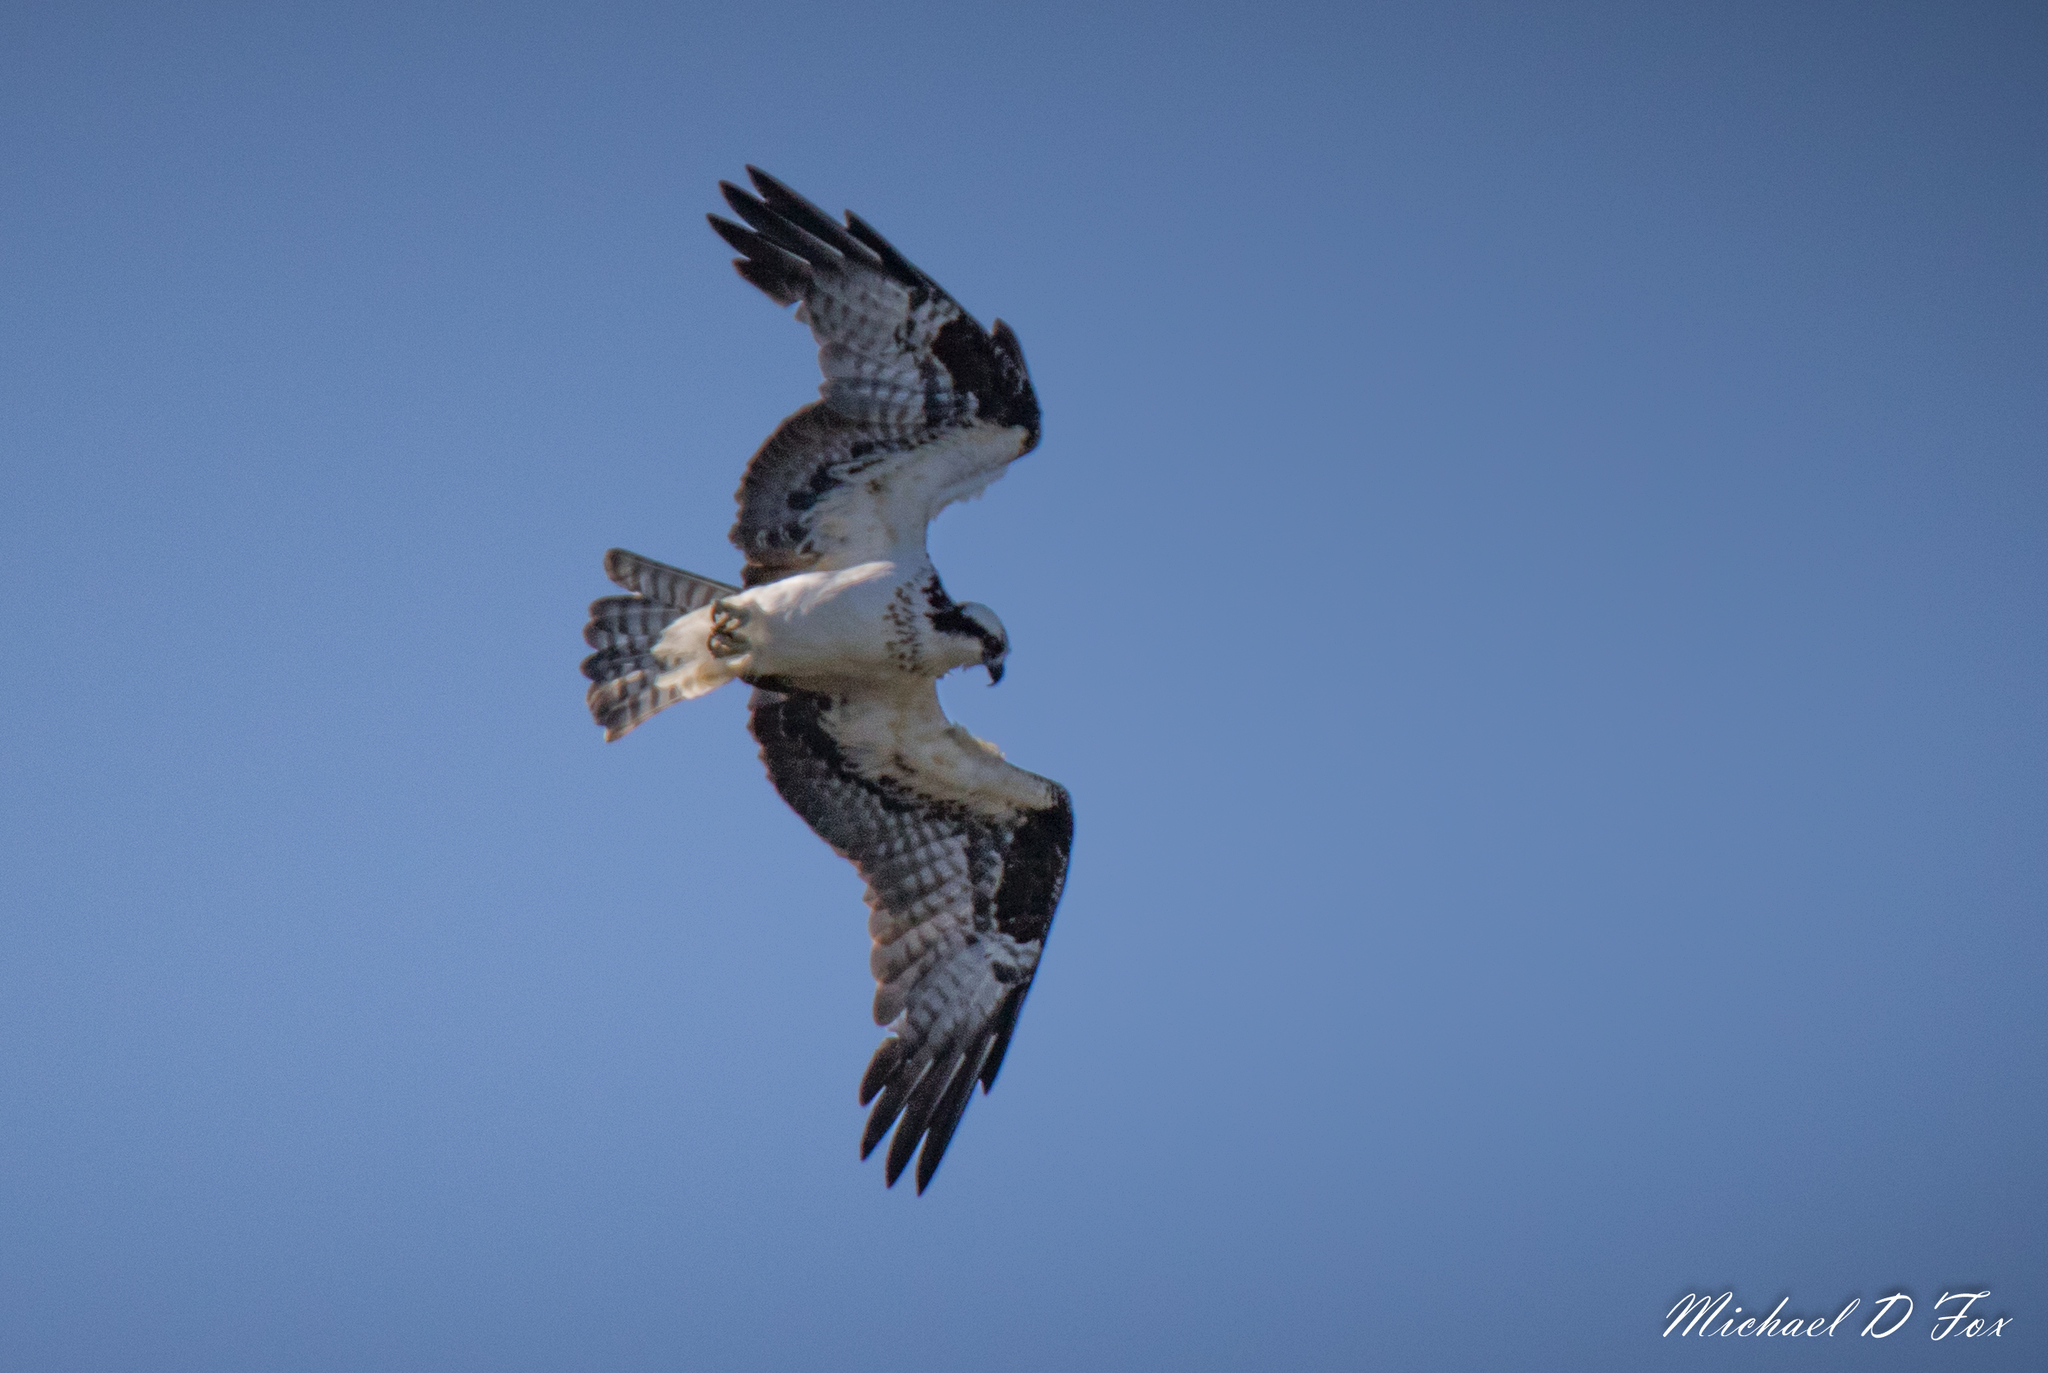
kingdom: Animalia
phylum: Chordata
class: Aves
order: Accipitriformes
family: Pandionidae
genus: Pandion
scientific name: Pandion haliaetus
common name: Osprey
